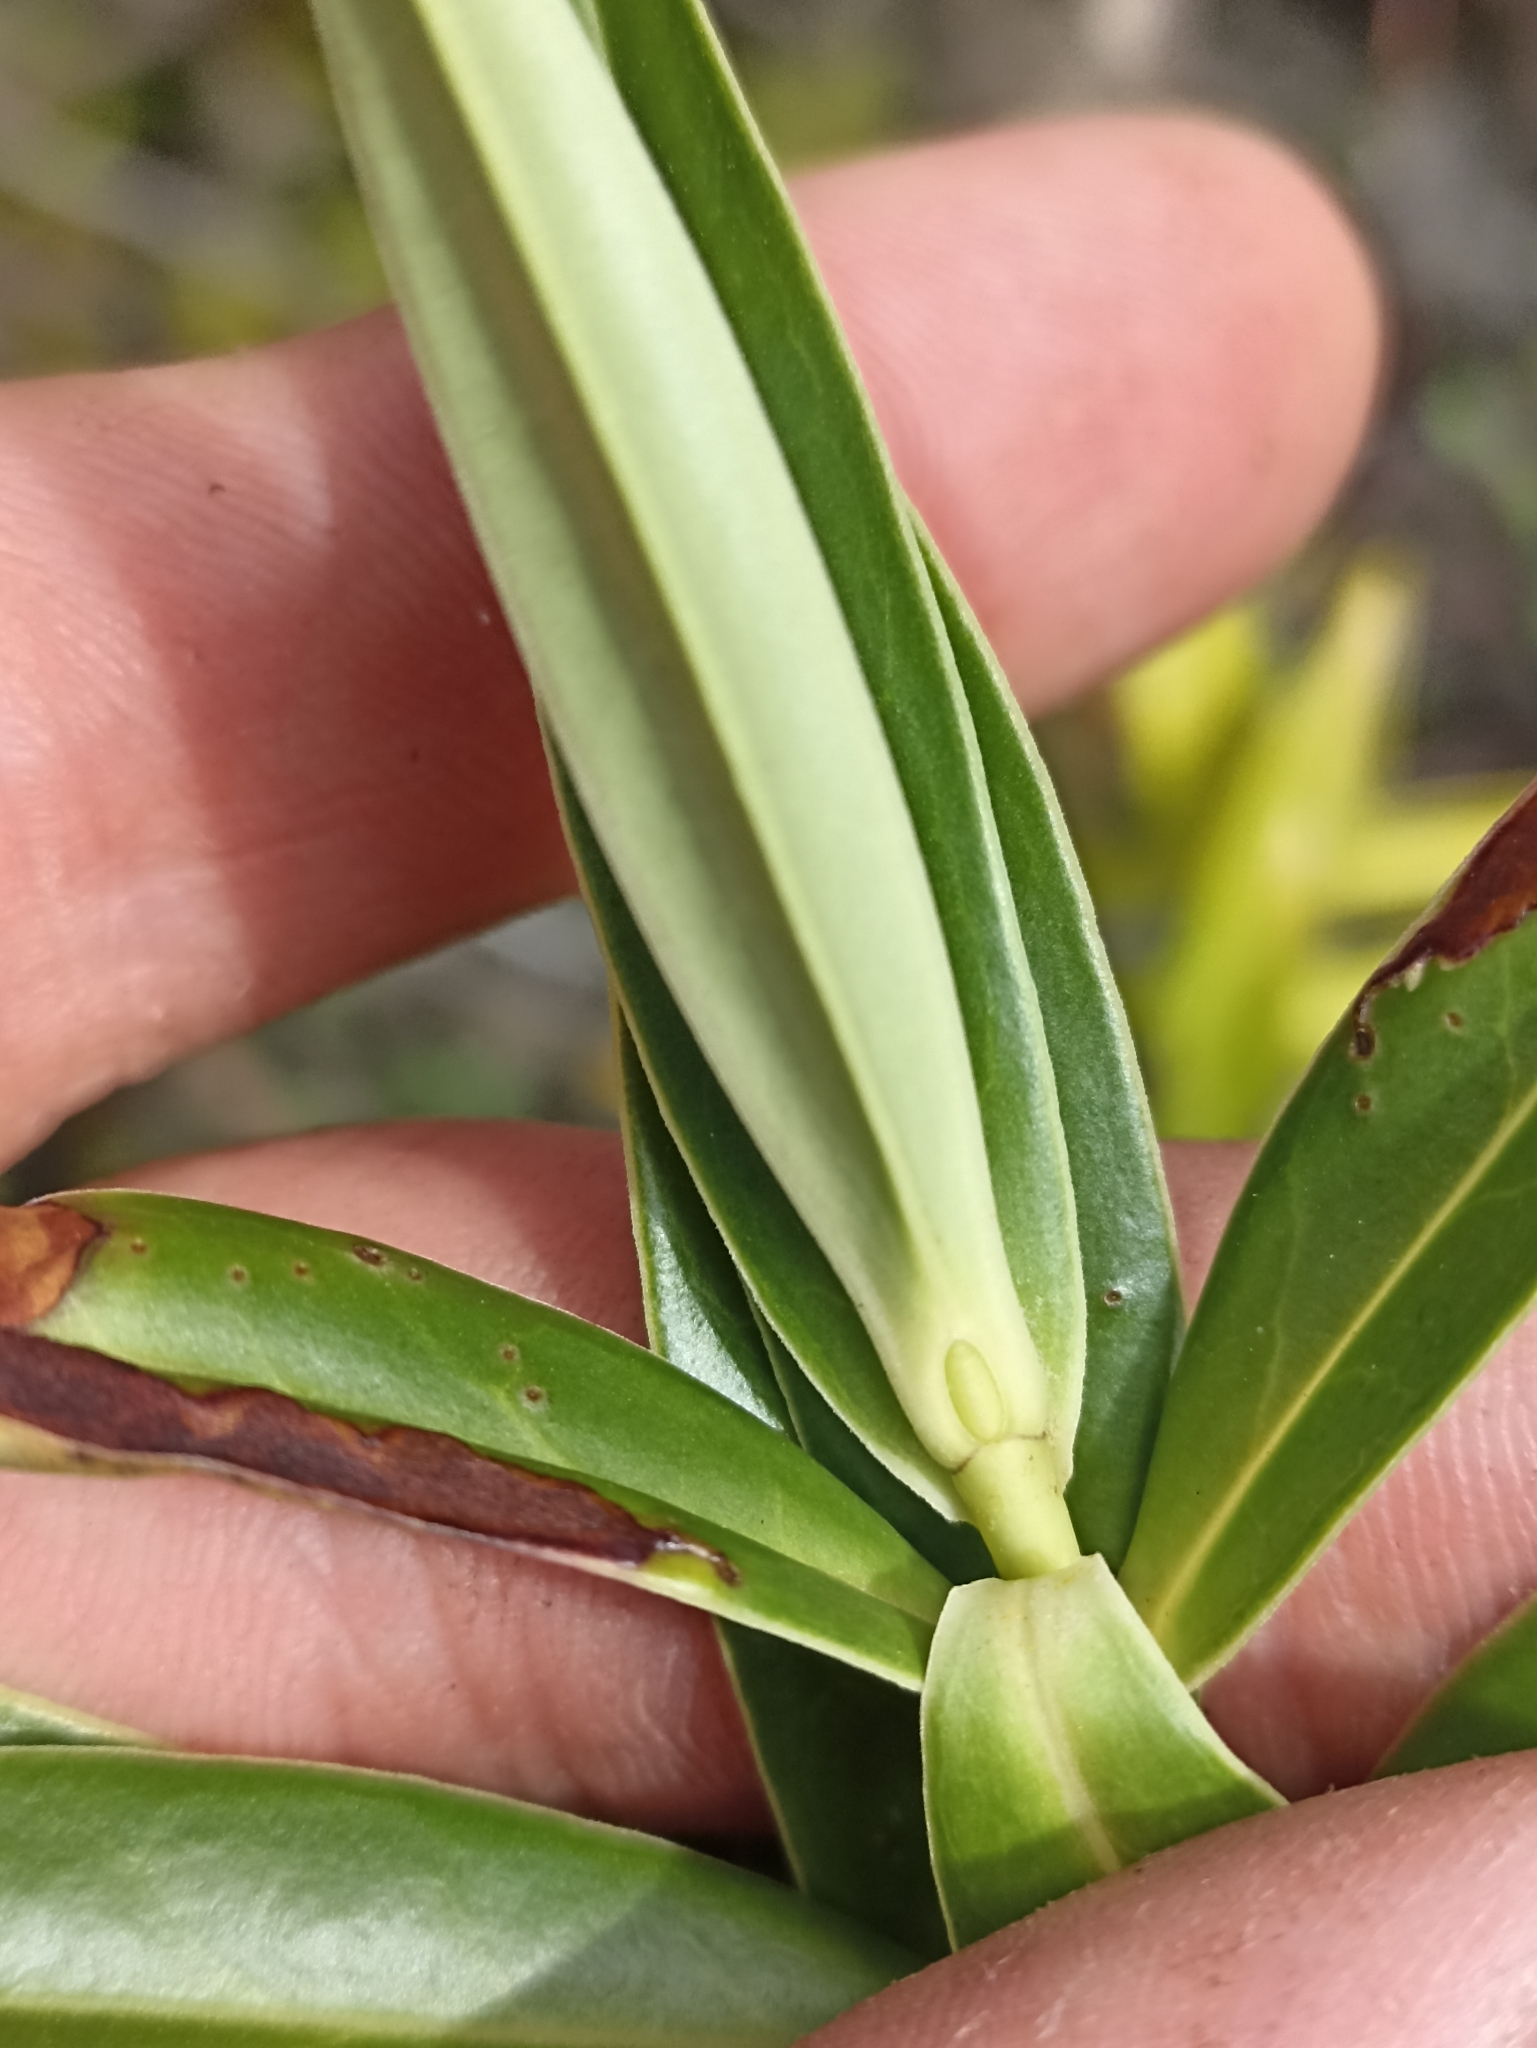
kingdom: Plantae
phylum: Tracheophyta
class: Magnoliopsida
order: Lamiales
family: Plantaginaceae
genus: Veronica
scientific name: Veronica salicifolia
